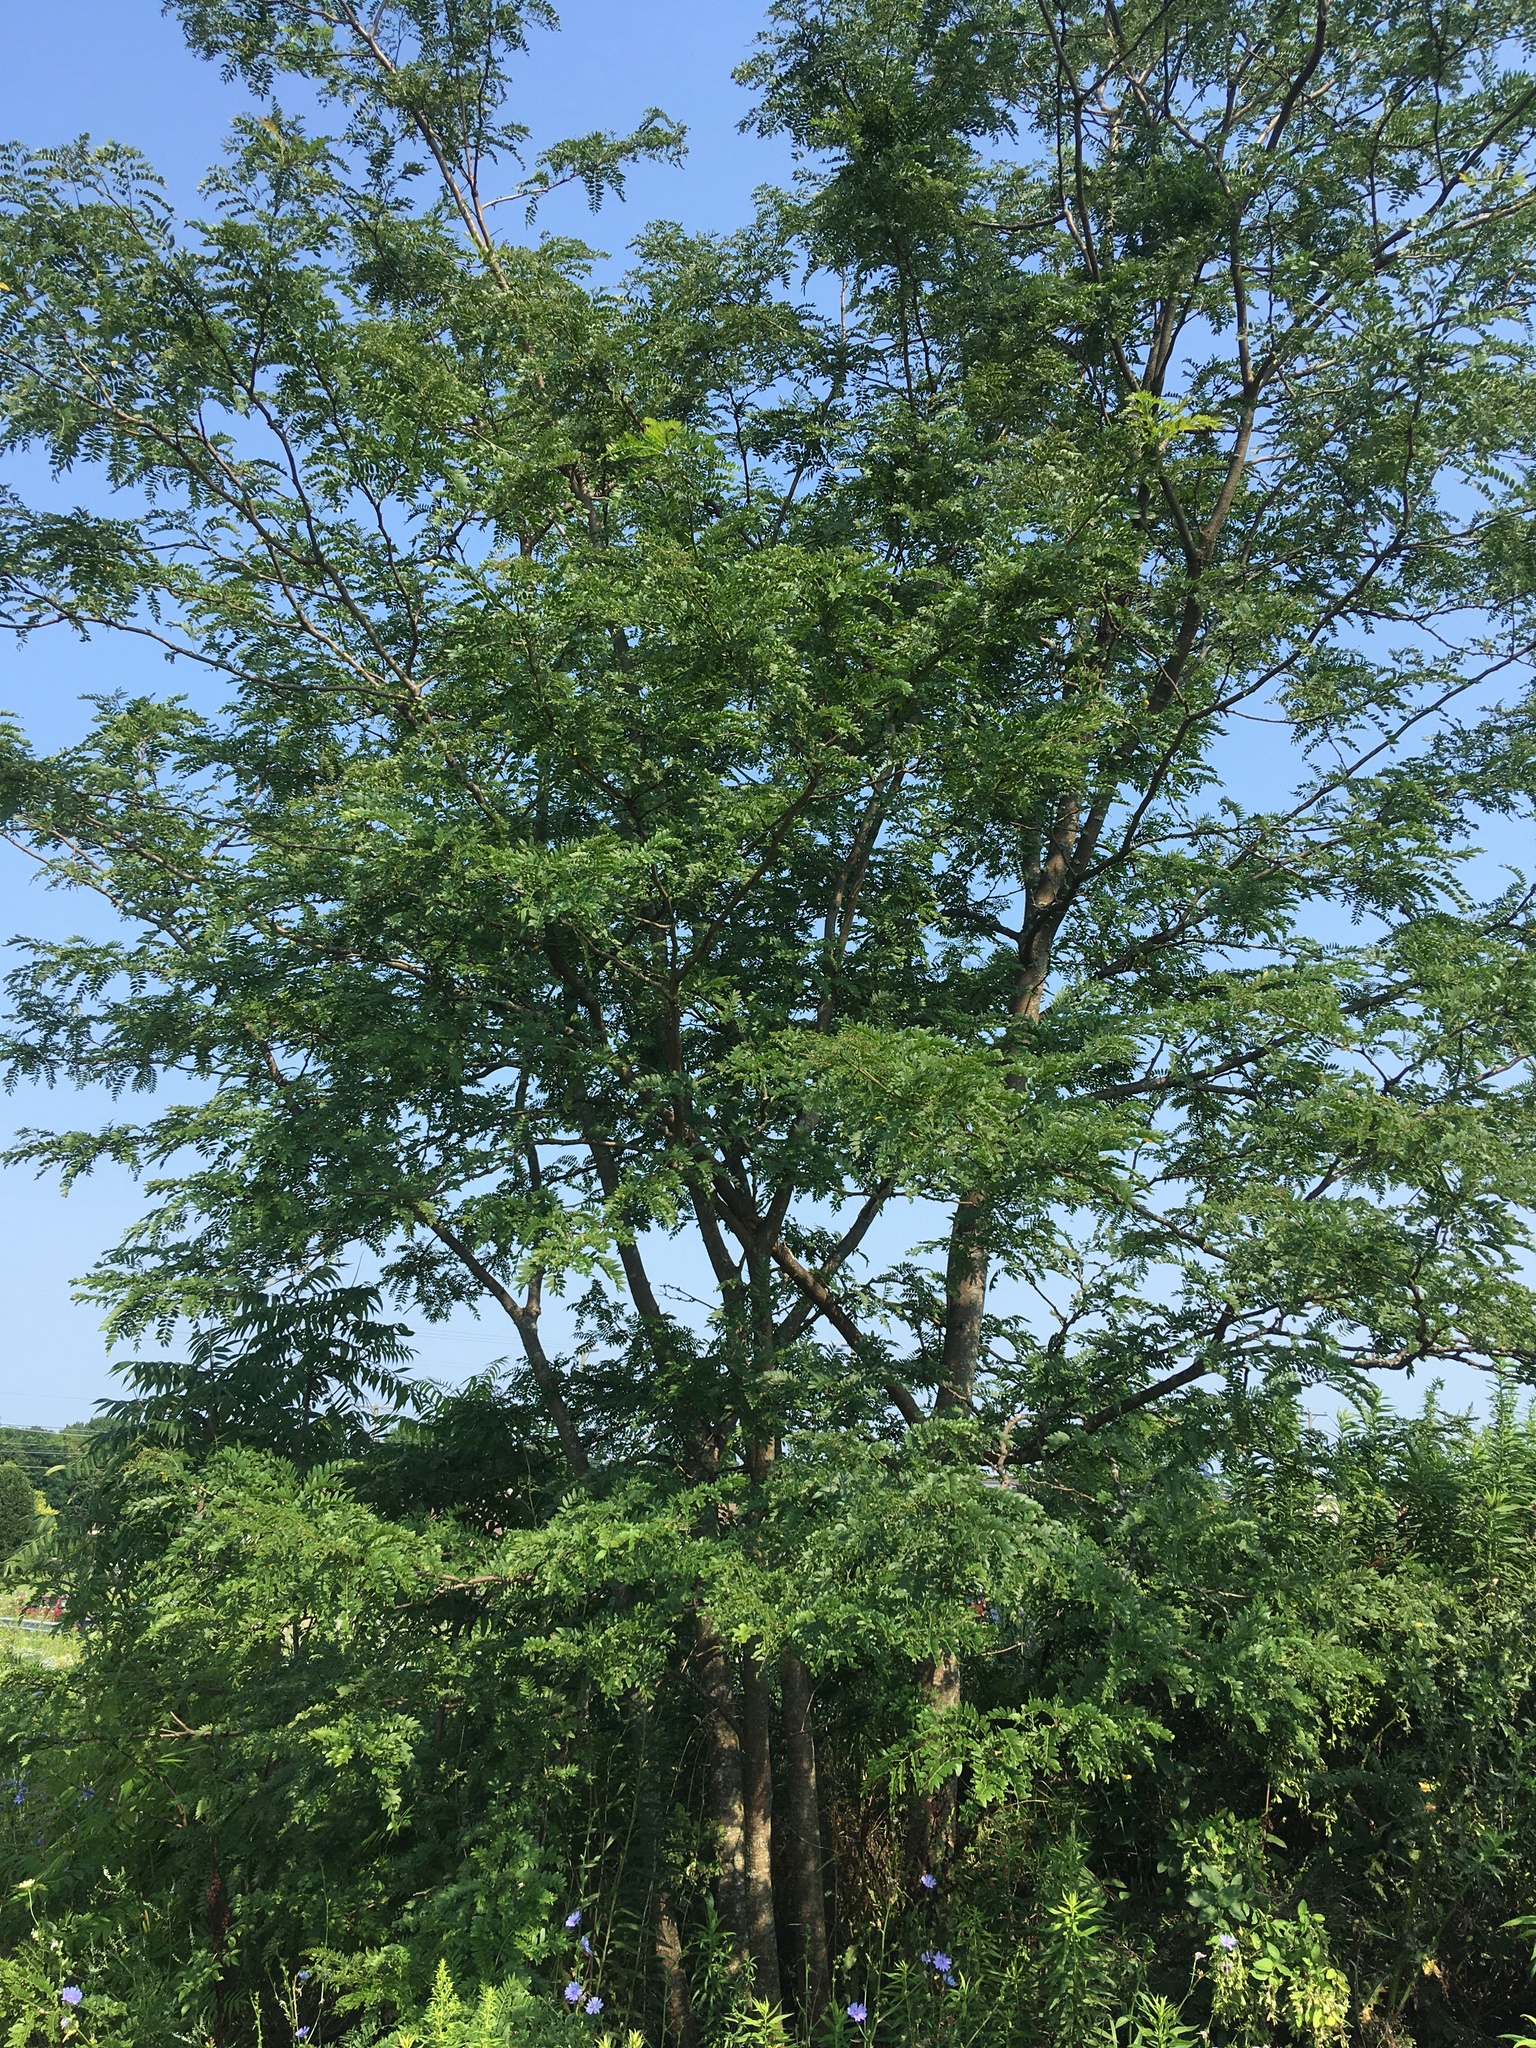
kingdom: Plantae
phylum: Tracheophyta
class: Magnoliopsida
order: Fabales
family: Fabaceae
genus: Gleditsia
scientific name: Gleditsia triacanthos
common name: Common honeylocust
